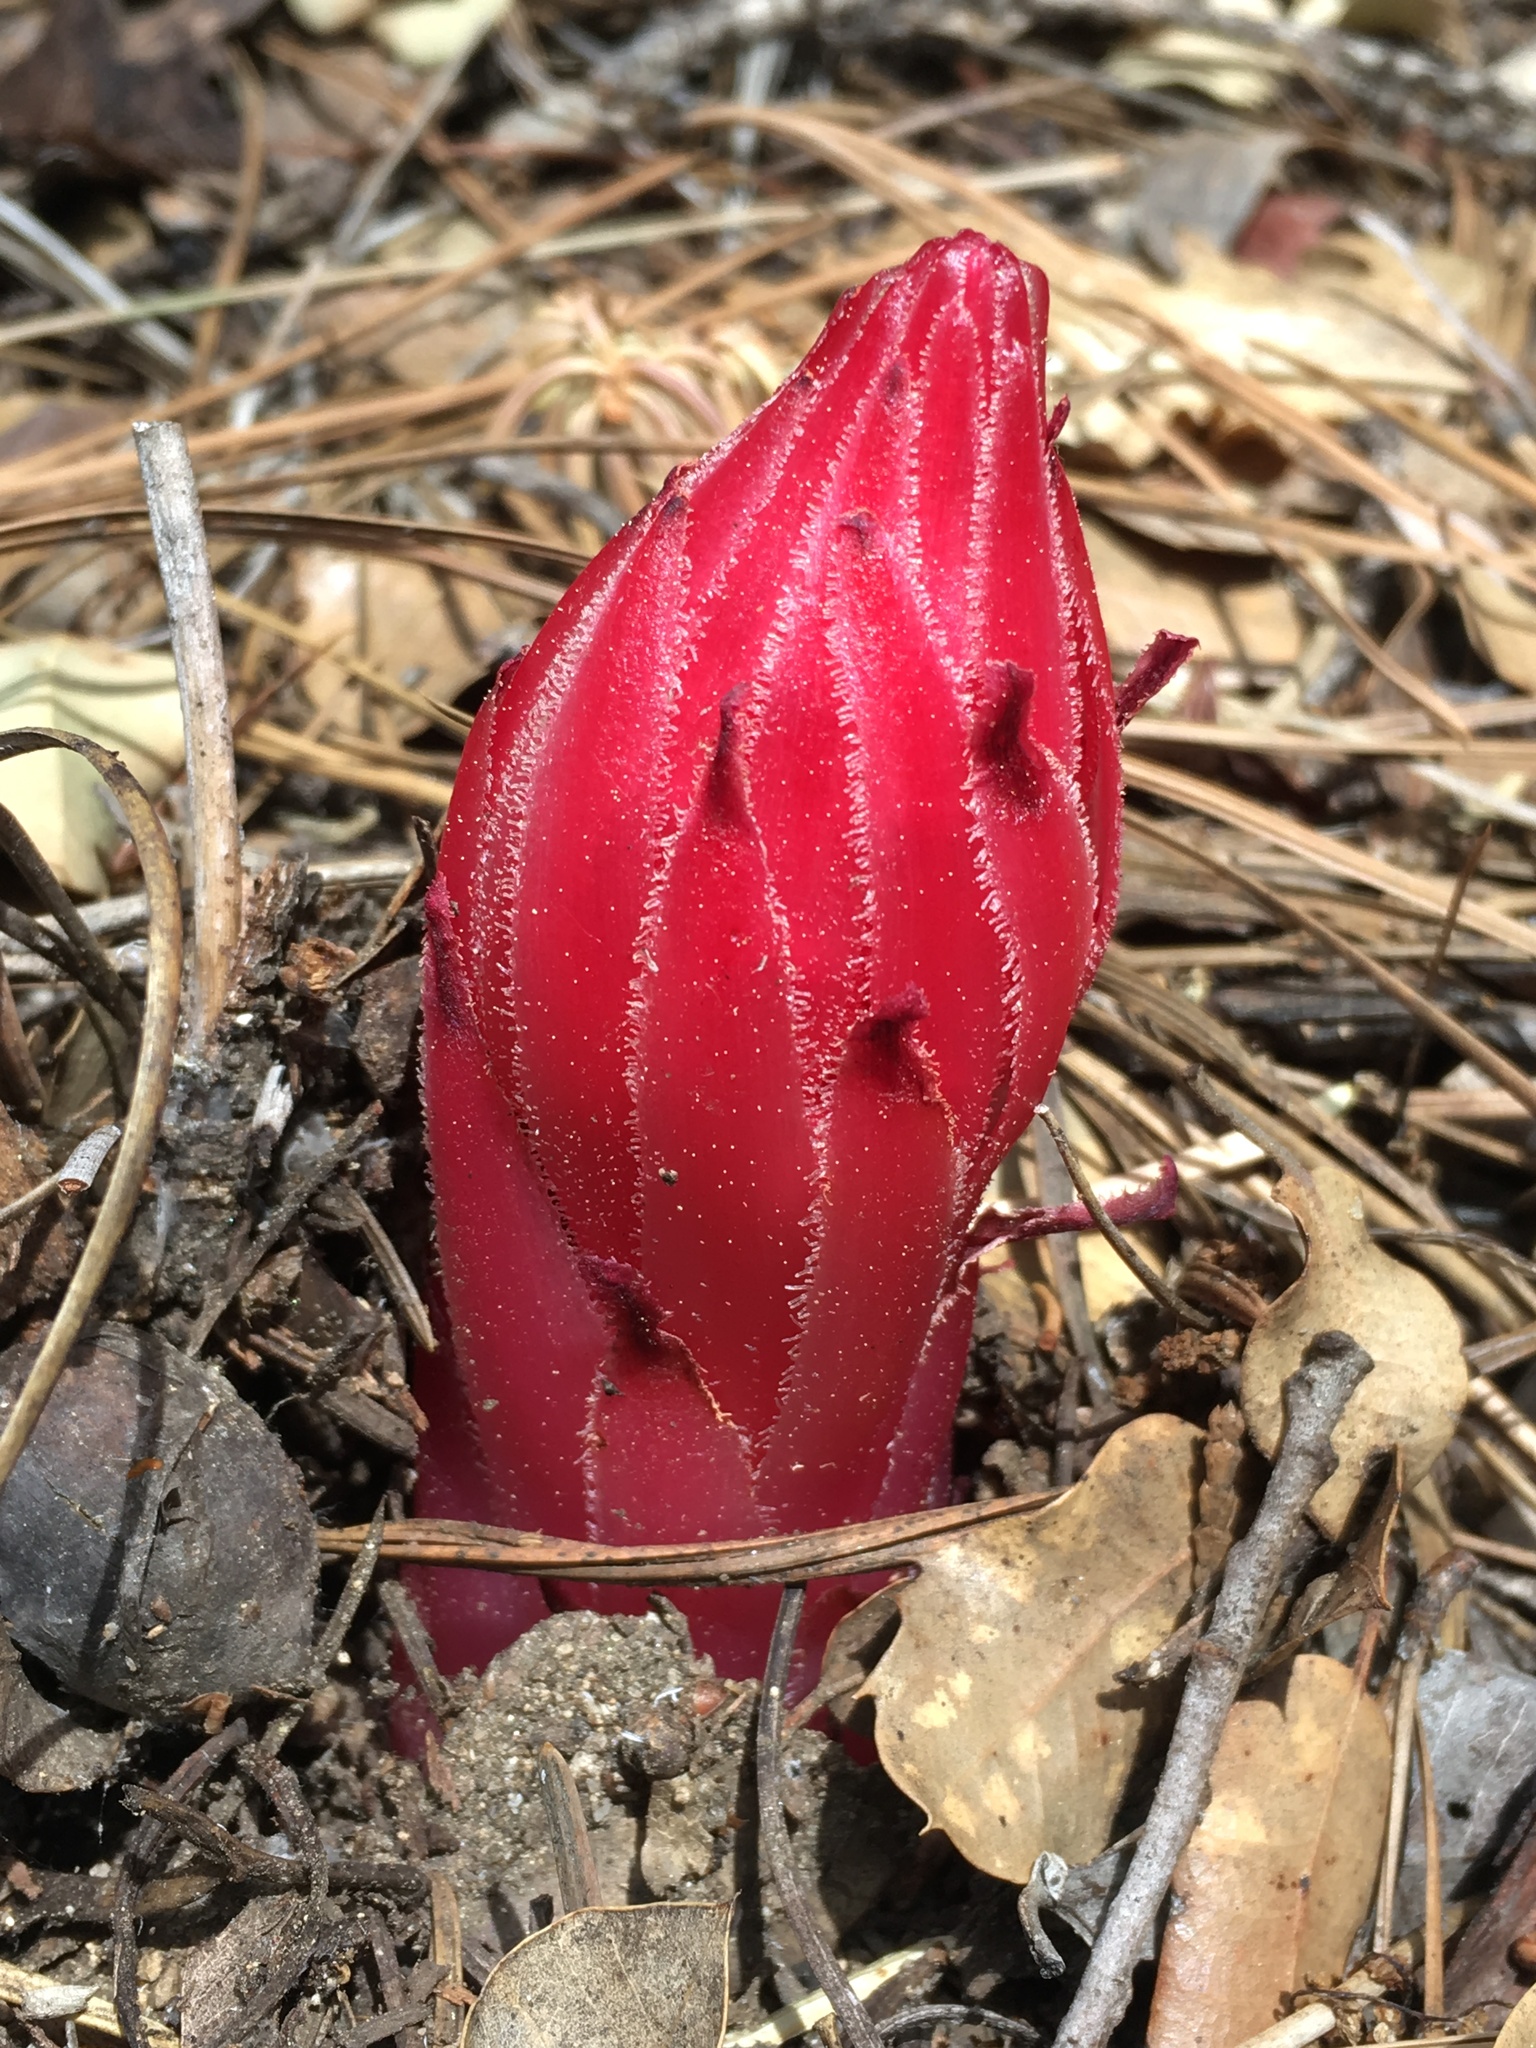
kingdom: Plantae
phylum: Tracheophyta
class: Magnoliopsida
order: Ericales
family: Ericaceae
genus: Sarcodes
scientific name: Sarcodes sanguinea
